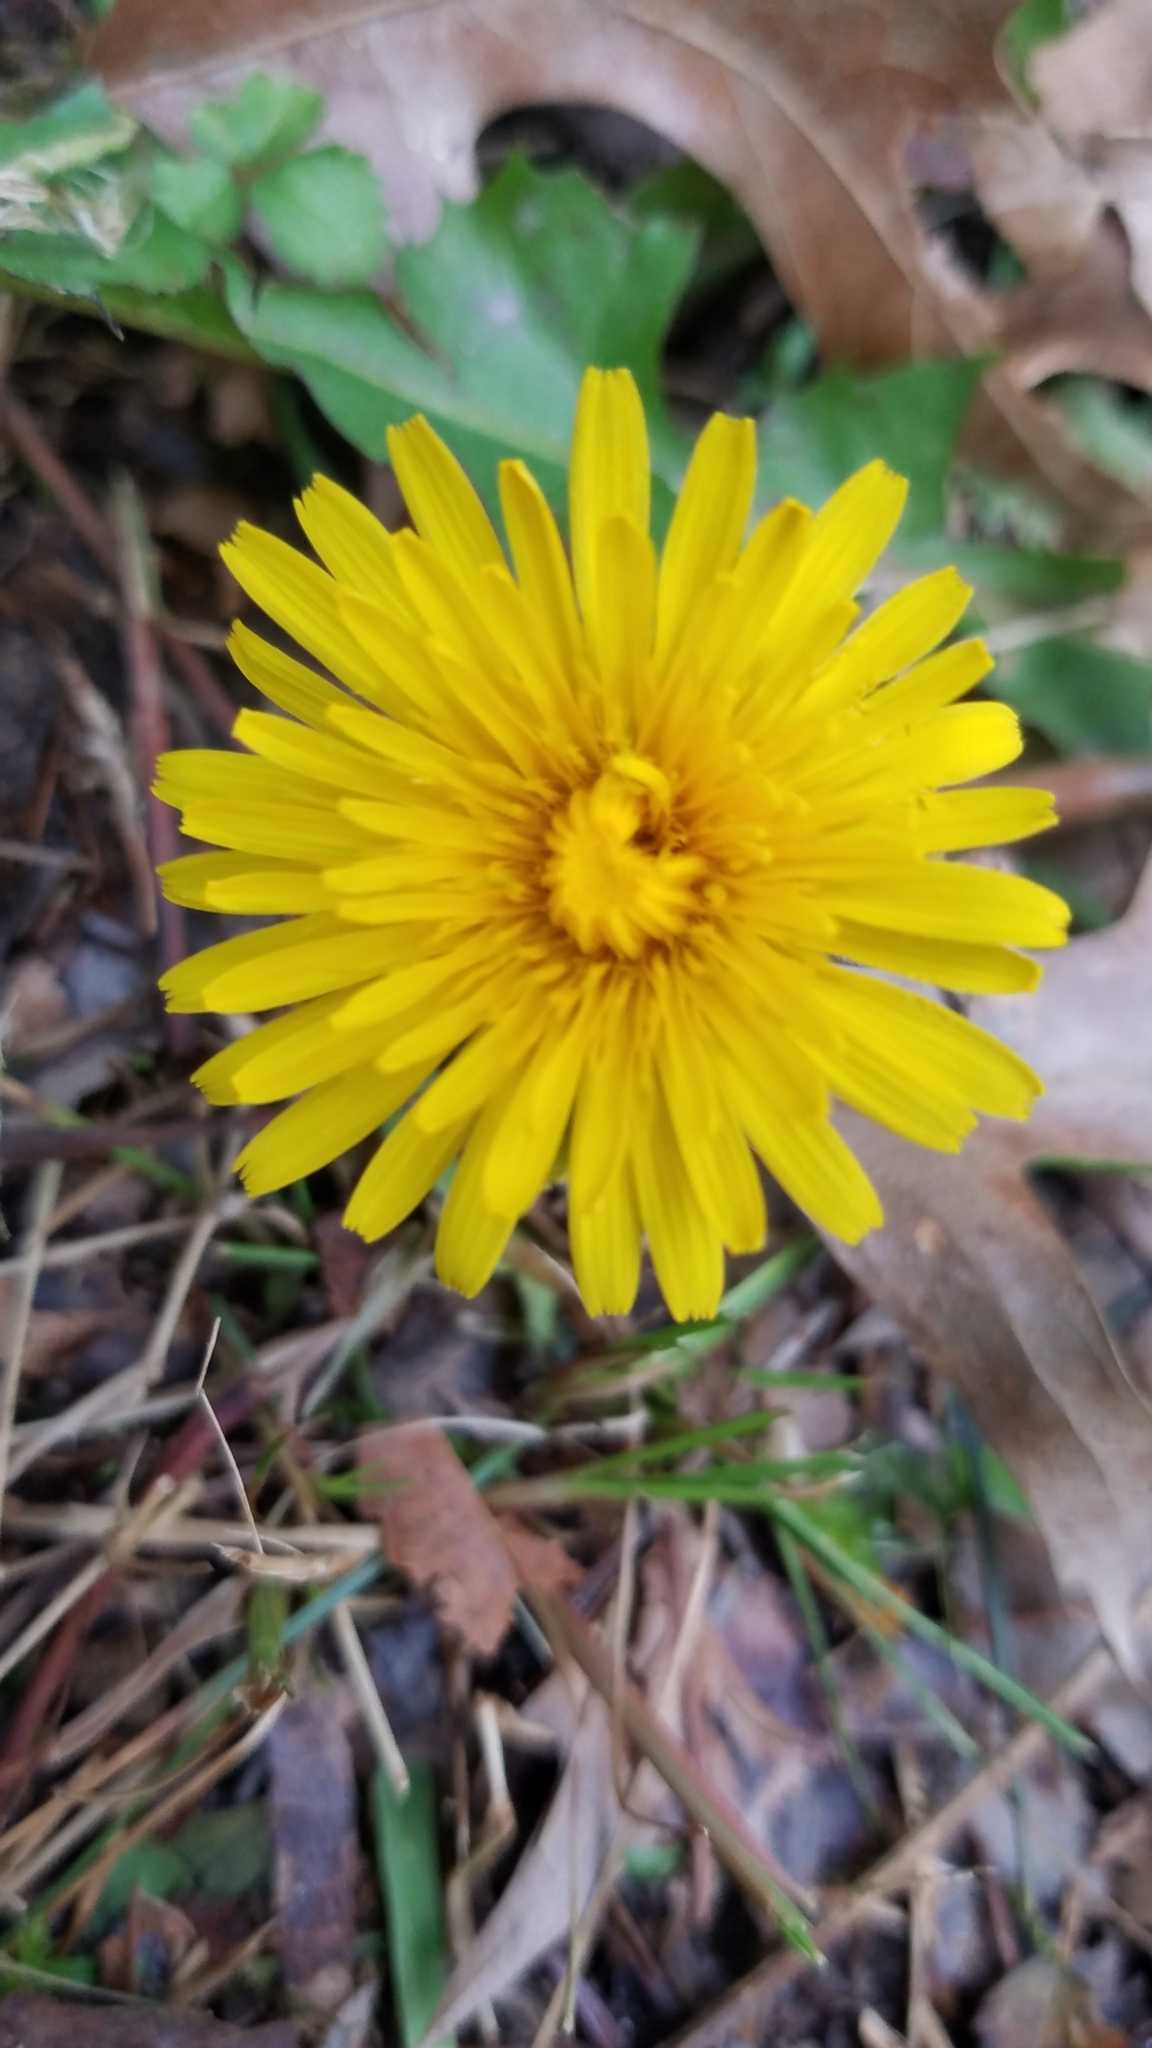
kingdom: Plantae
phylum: Tracheophyta
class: Magnoliopsida
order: Asterales
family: Asteraceae
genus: Taraxacum
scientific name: Taraxacum officinale
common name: Common dandelion
